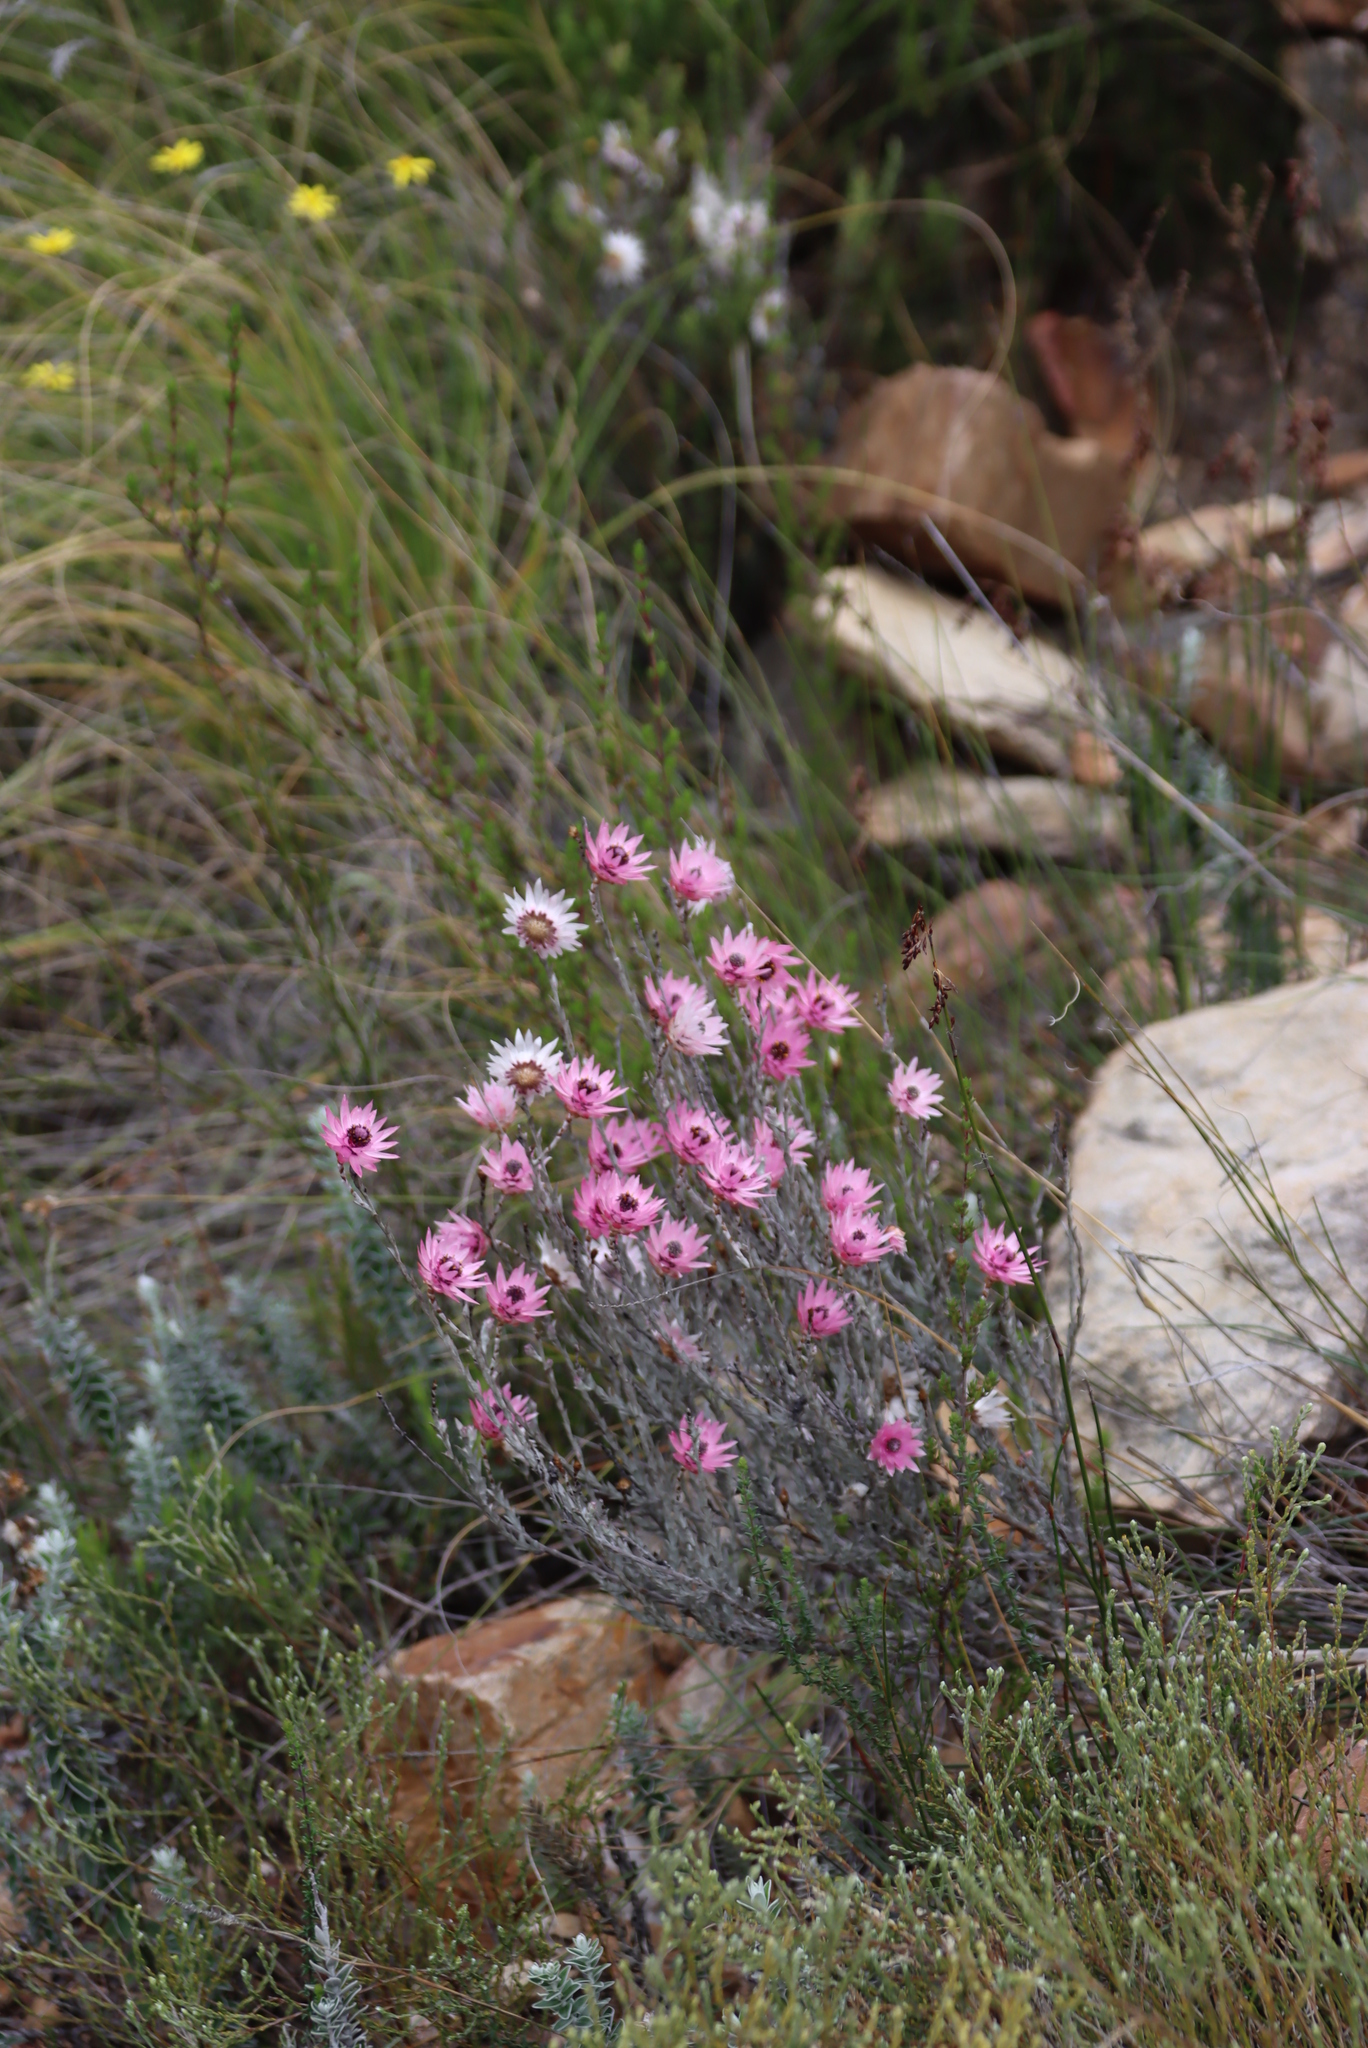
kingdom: Plantae
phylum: Tracheophyta
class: Magnoliopsida
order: Asterales
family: Asteraceae
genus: Syncarpha
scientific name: Syncarpha canescens
